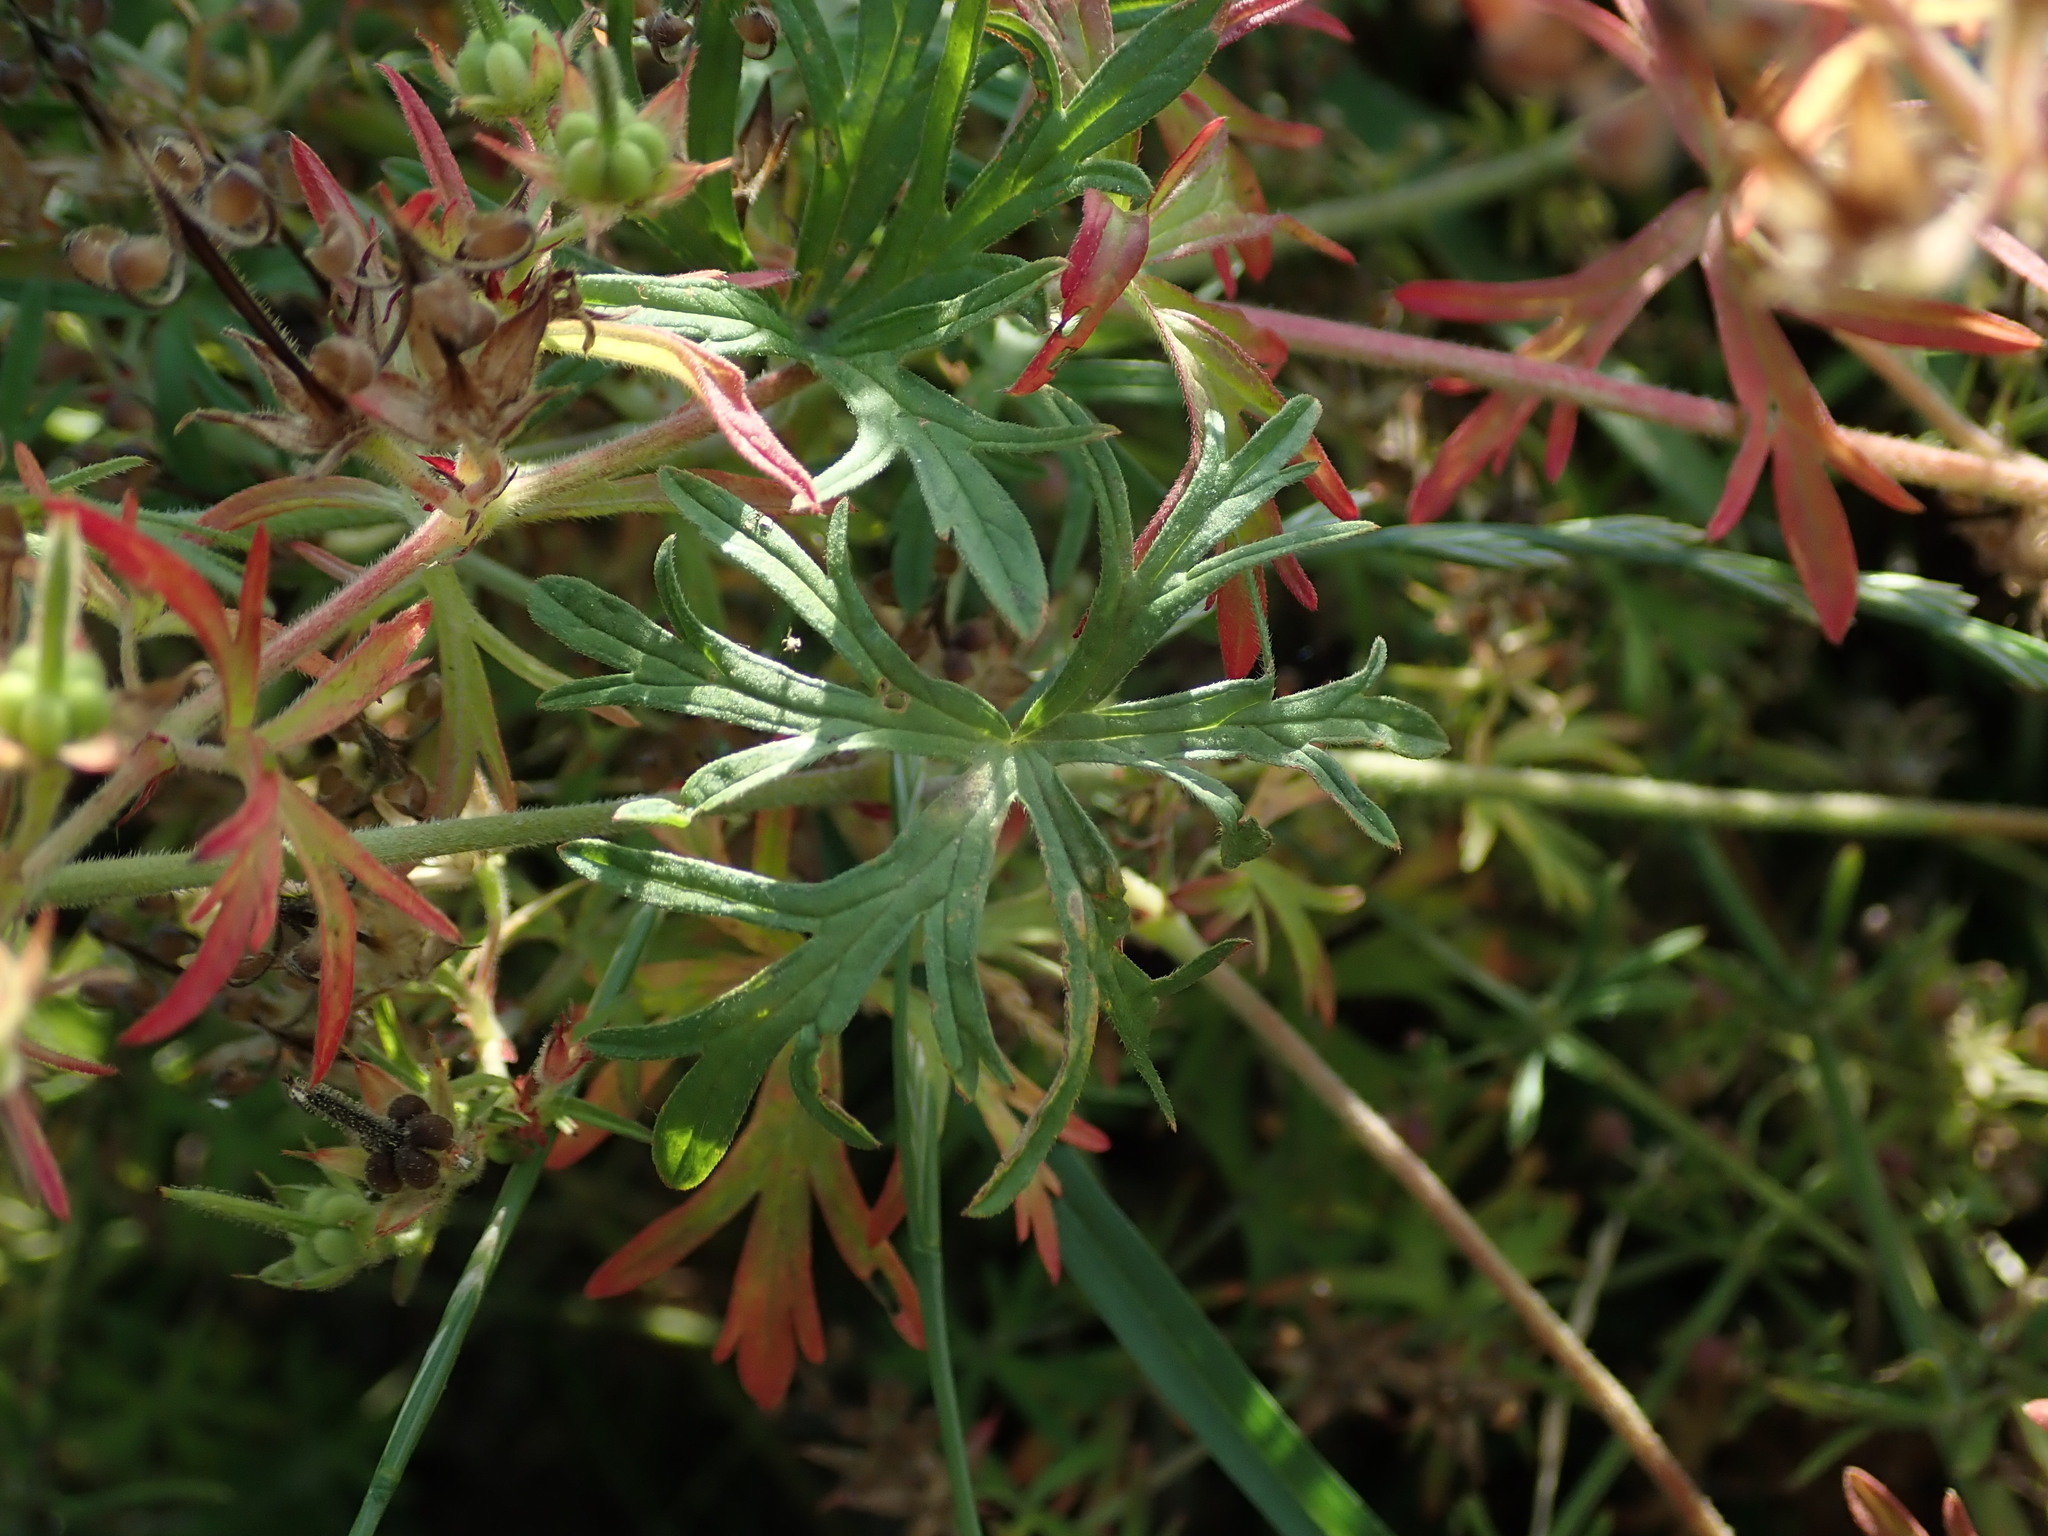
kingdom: Plantae
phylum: Tracheophyta
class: Magnoliopsida
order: Geraniales
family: Geraniaceae
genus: Geranium
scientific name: Geranium dissectum
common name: Cut-leaved crane's-bill
